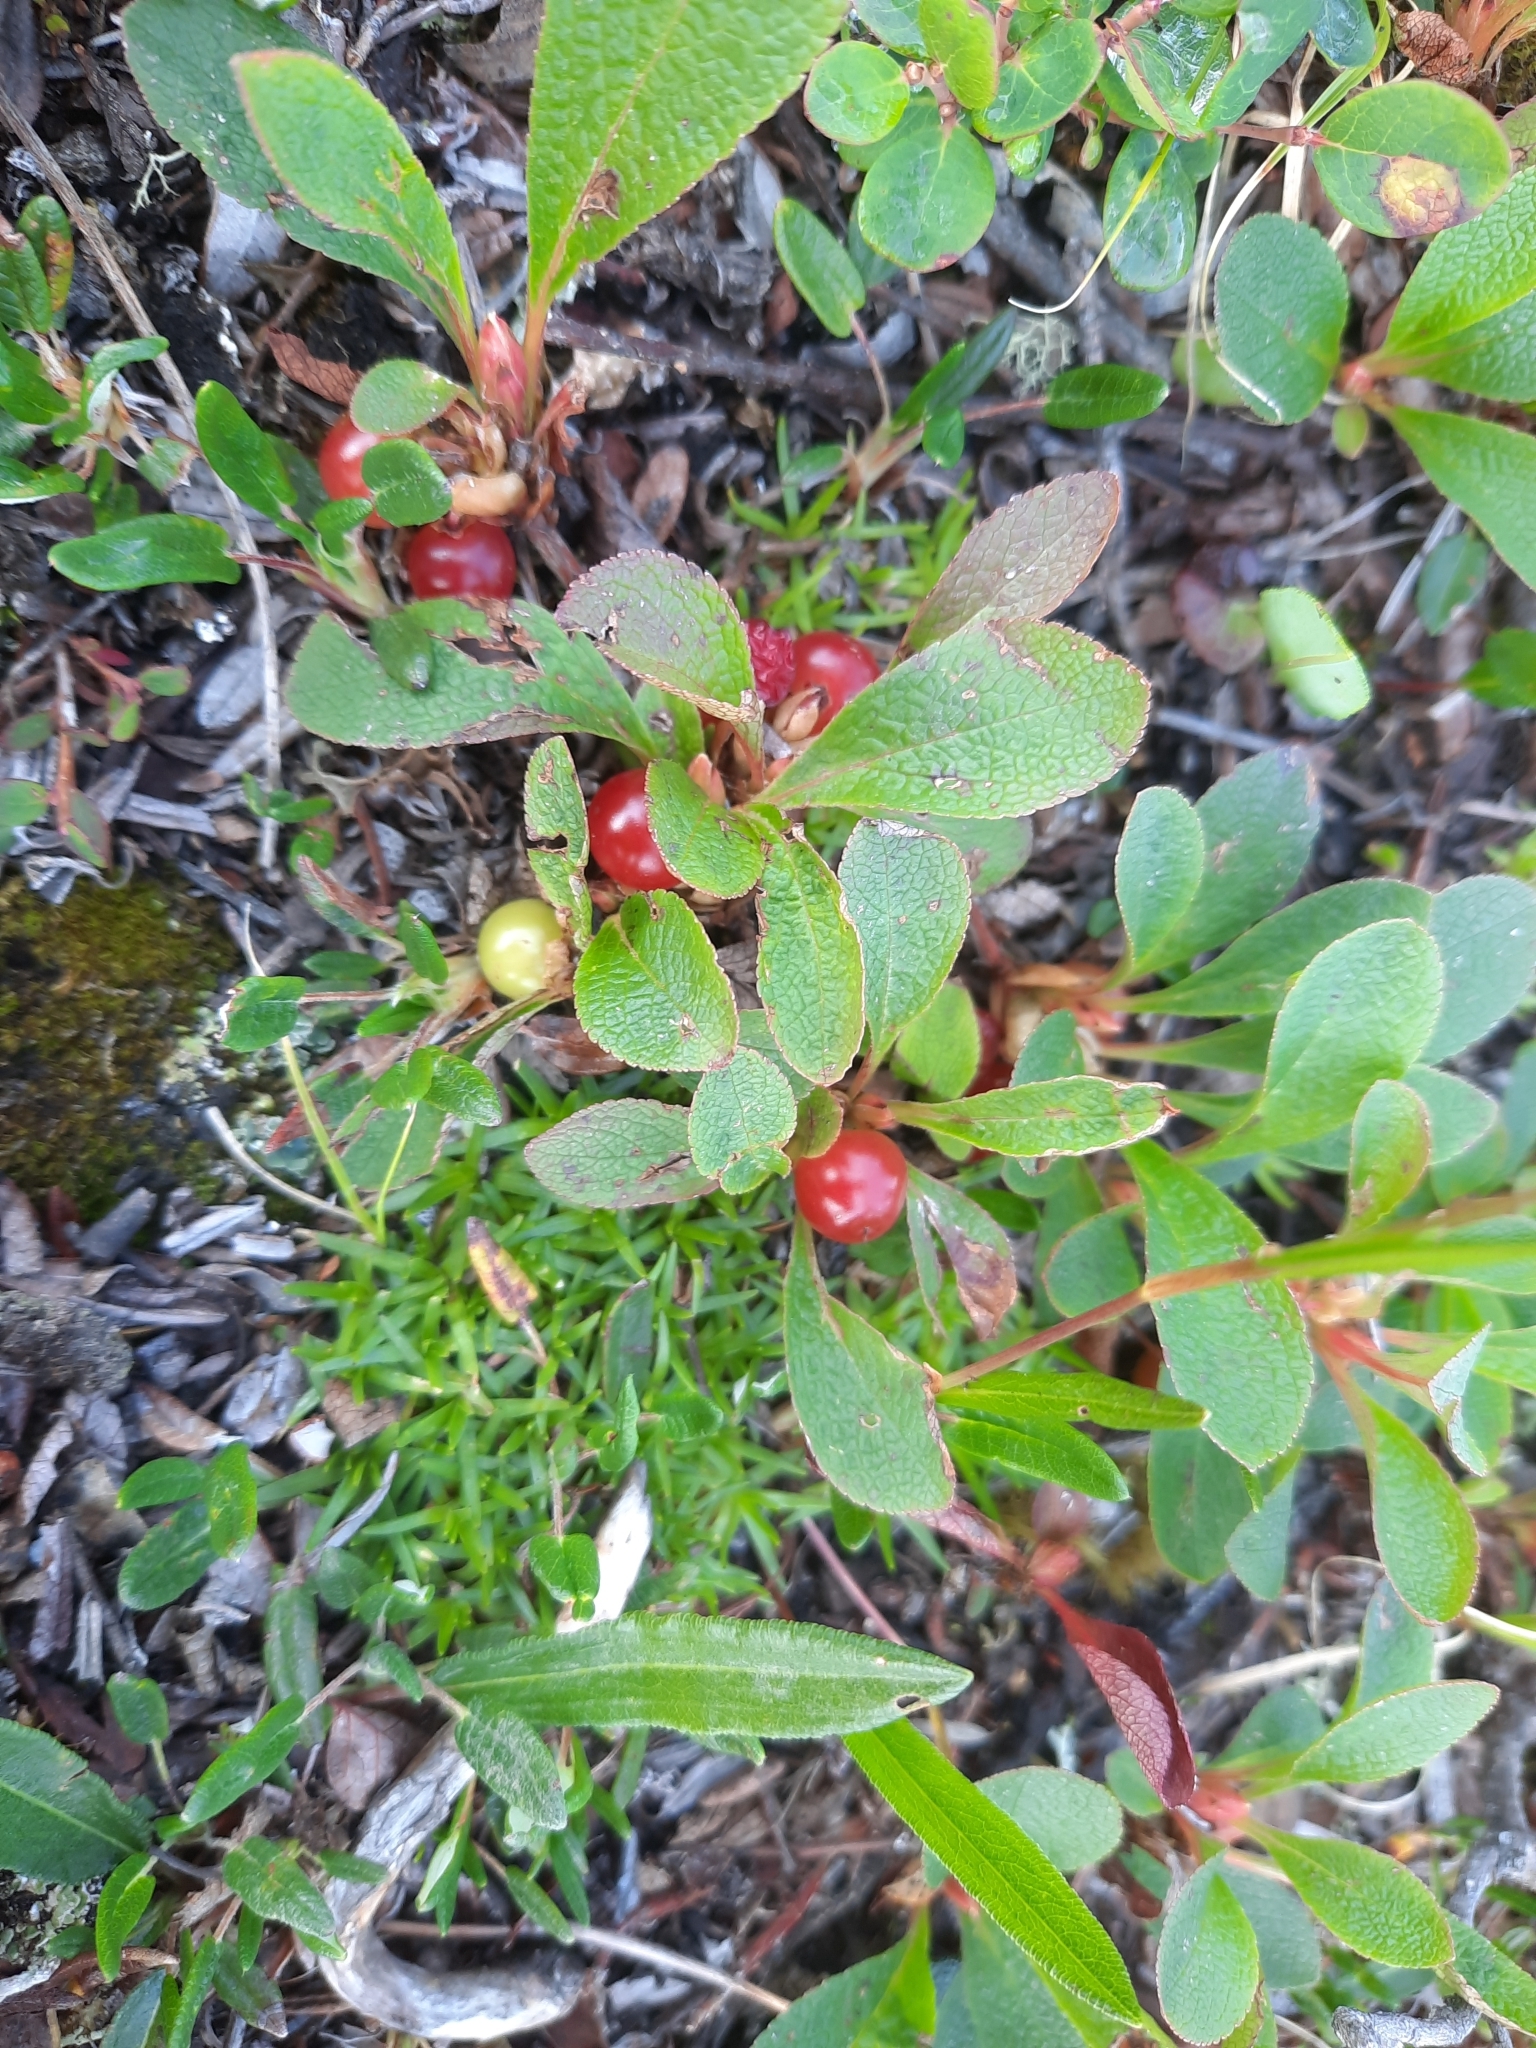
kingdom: Plantae
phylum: Tracheophyta
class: Magnoliopsida
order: Ericales
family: Ericaceae
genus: Arctostaphylos
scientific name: Arctostaphylos rubra
